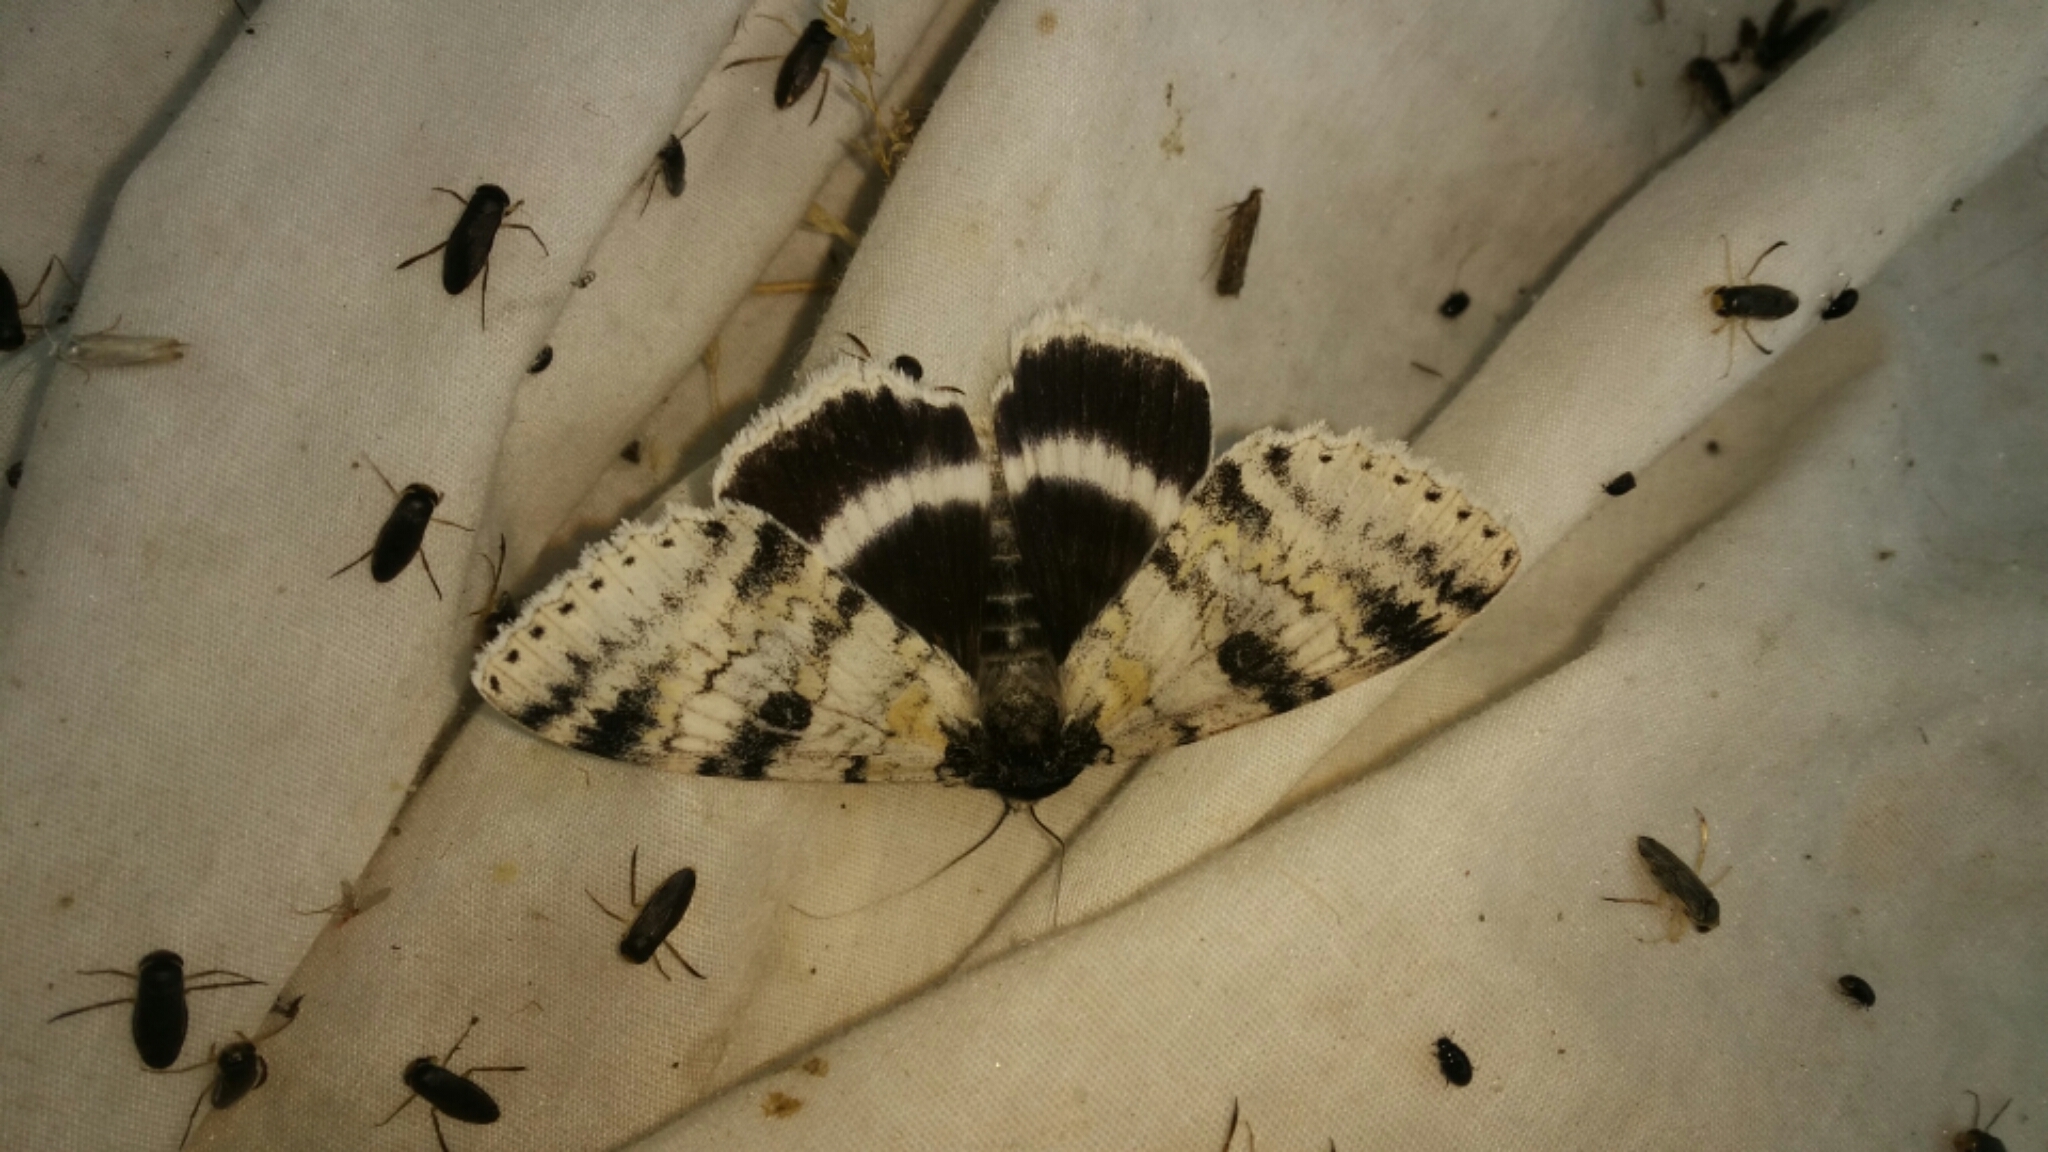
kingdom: Animalia
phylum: Arthropoda
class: Insecta
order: Lepidoptera
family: Erebidae
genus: Catocala
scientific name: Catocala relicta
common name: White underwing
